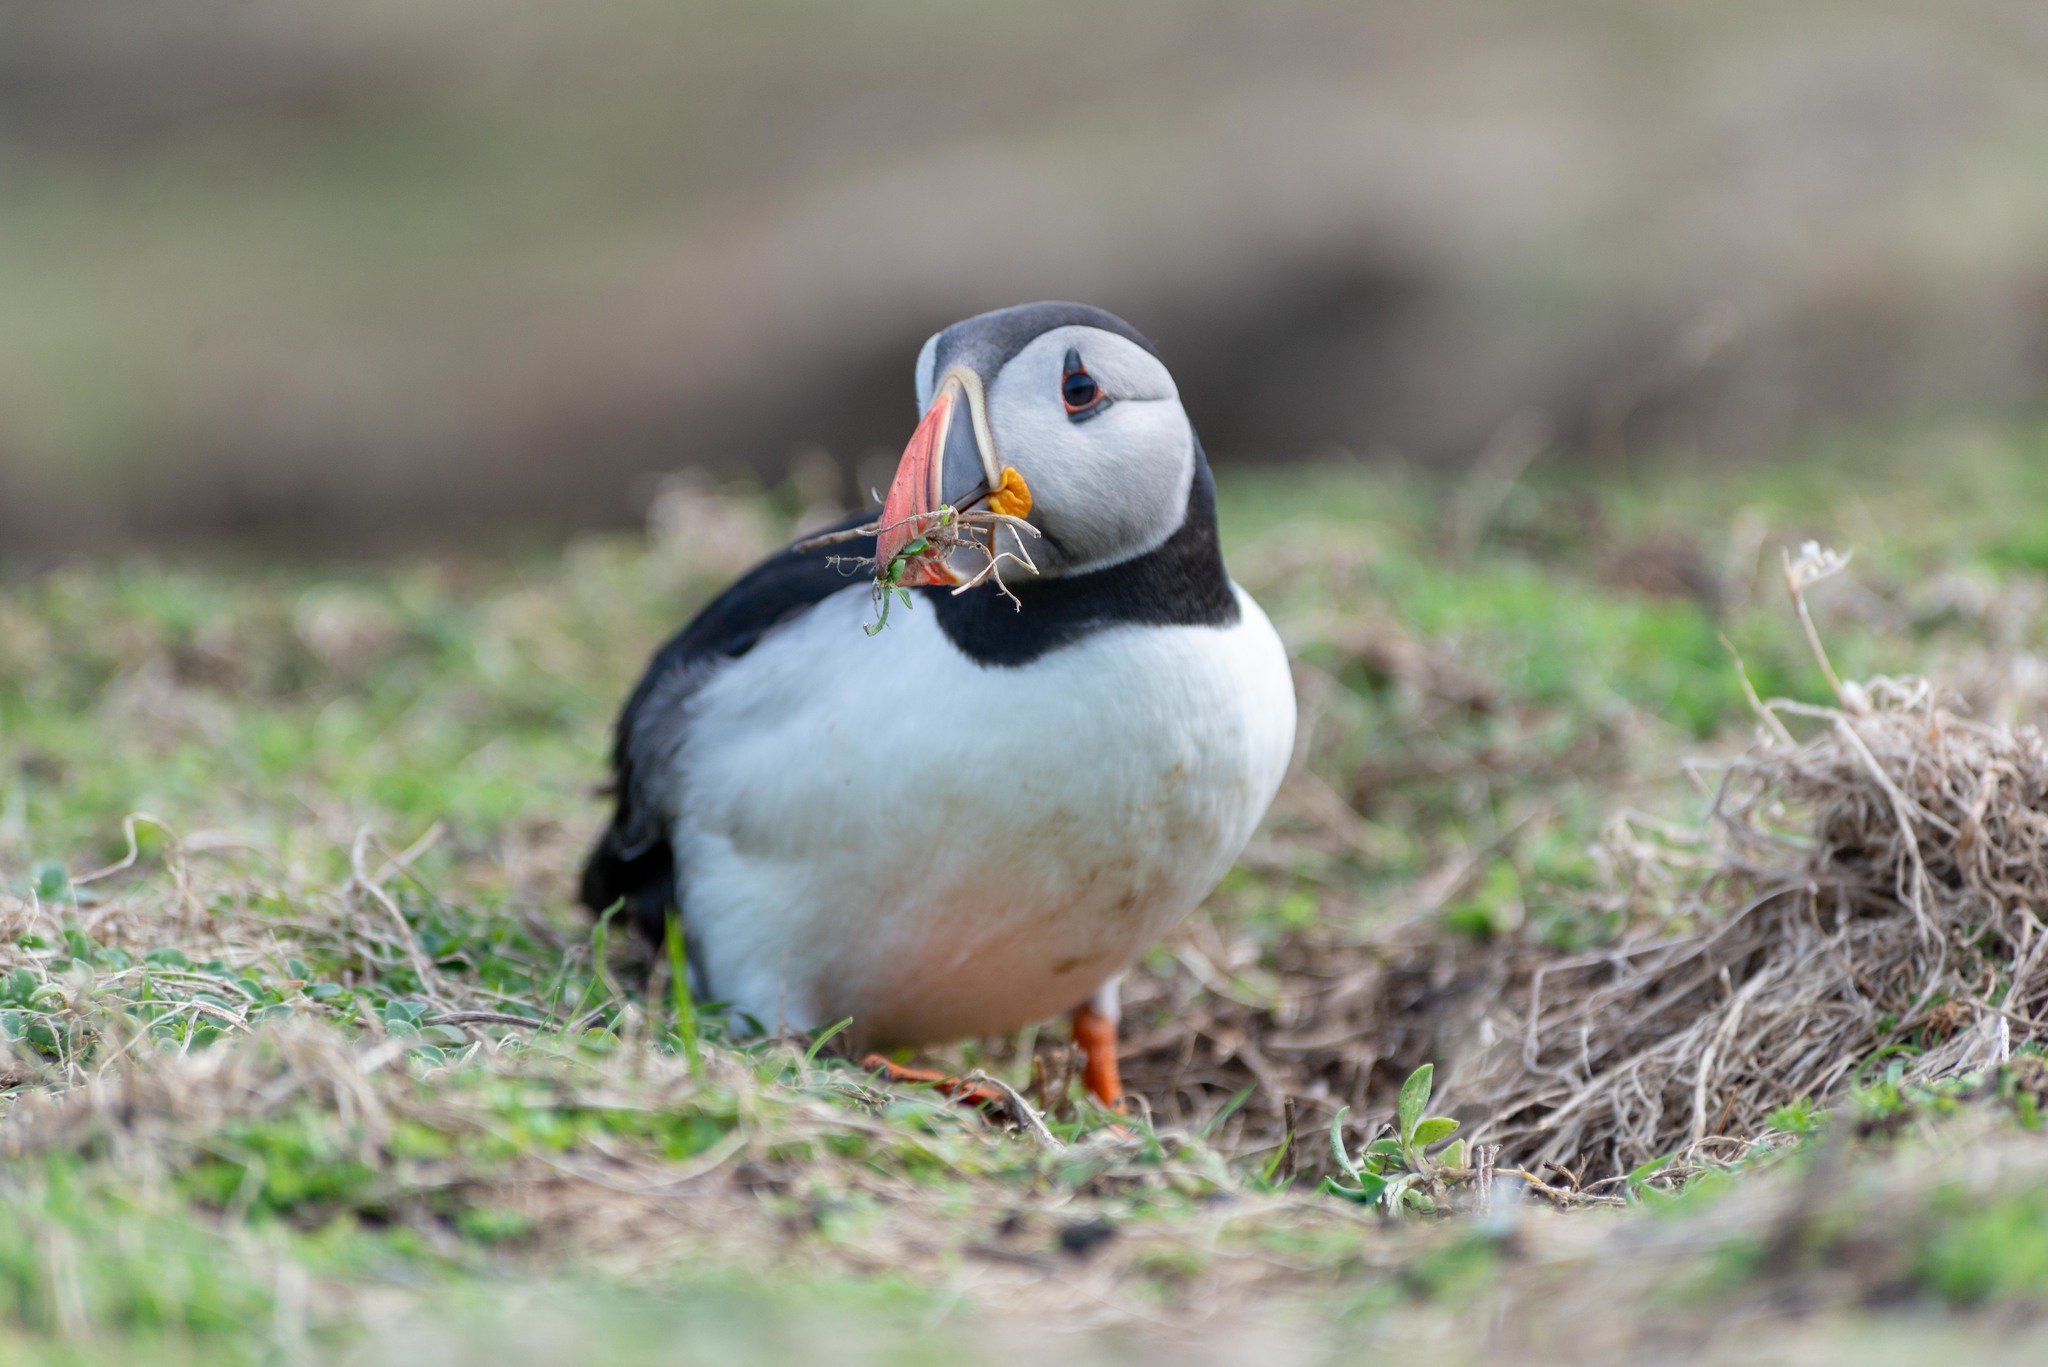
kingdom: Animalia
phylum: Chordata
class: Aves
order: Charadriiformes
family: Alcidae
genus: Fratercula
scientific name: Fratercula arctica
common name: Atlantic puffin
